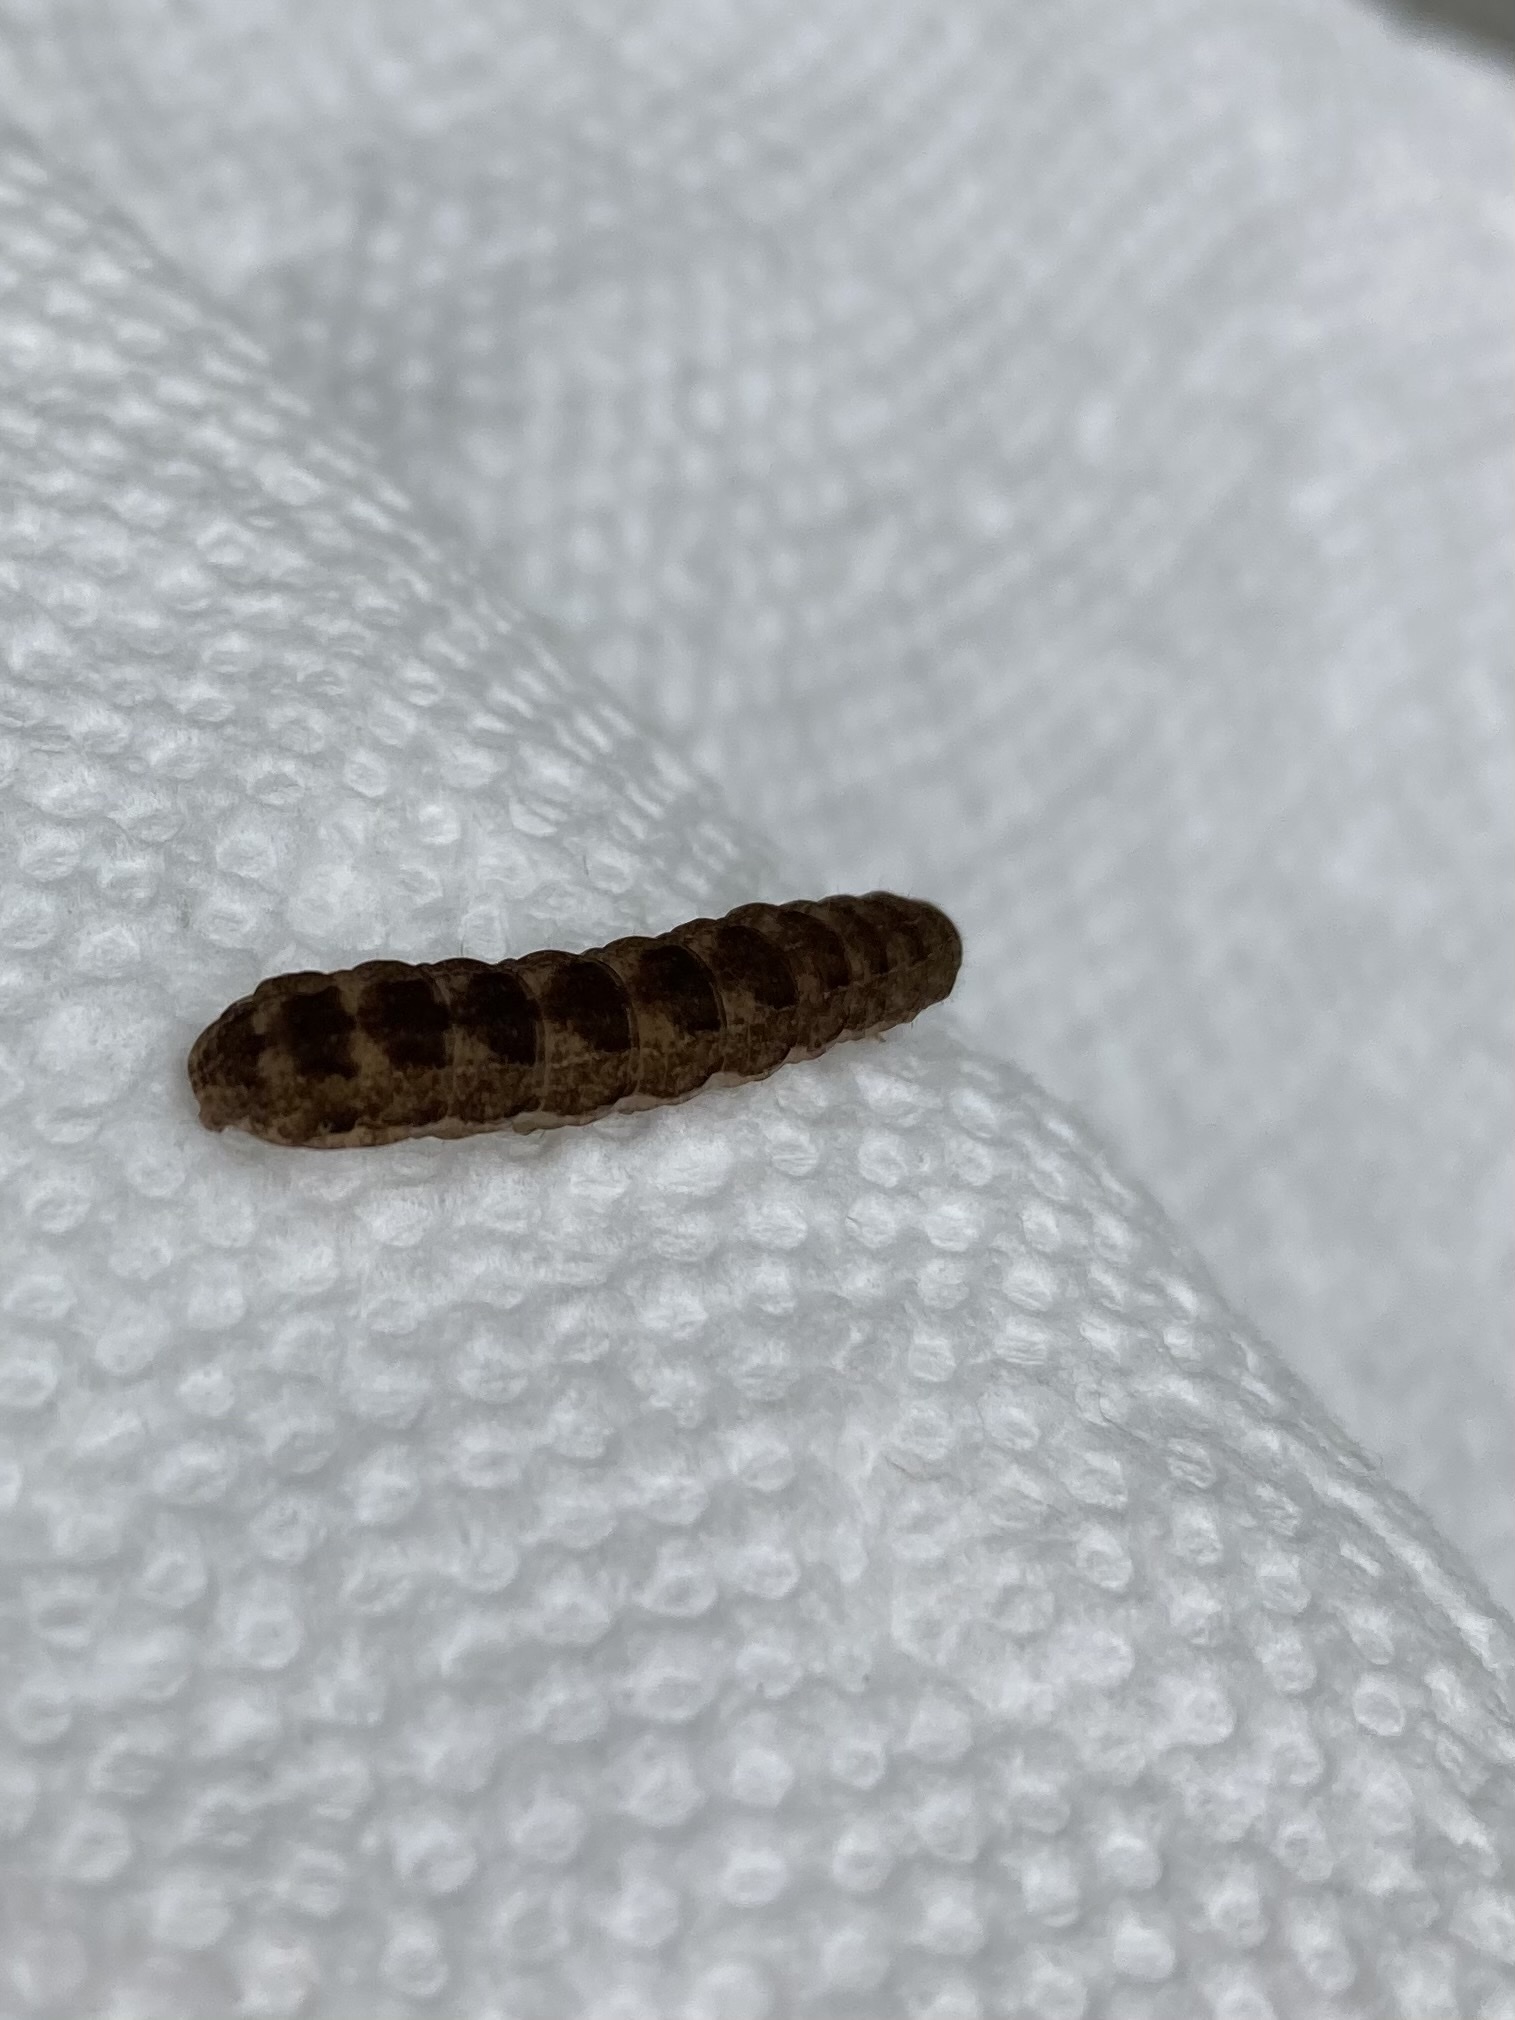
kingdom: Animalia
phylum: Arthropoda
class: Insecta
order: Lepidoptera
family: Noctuidae
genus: Agrochola
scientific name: Agrochola bicolorago
